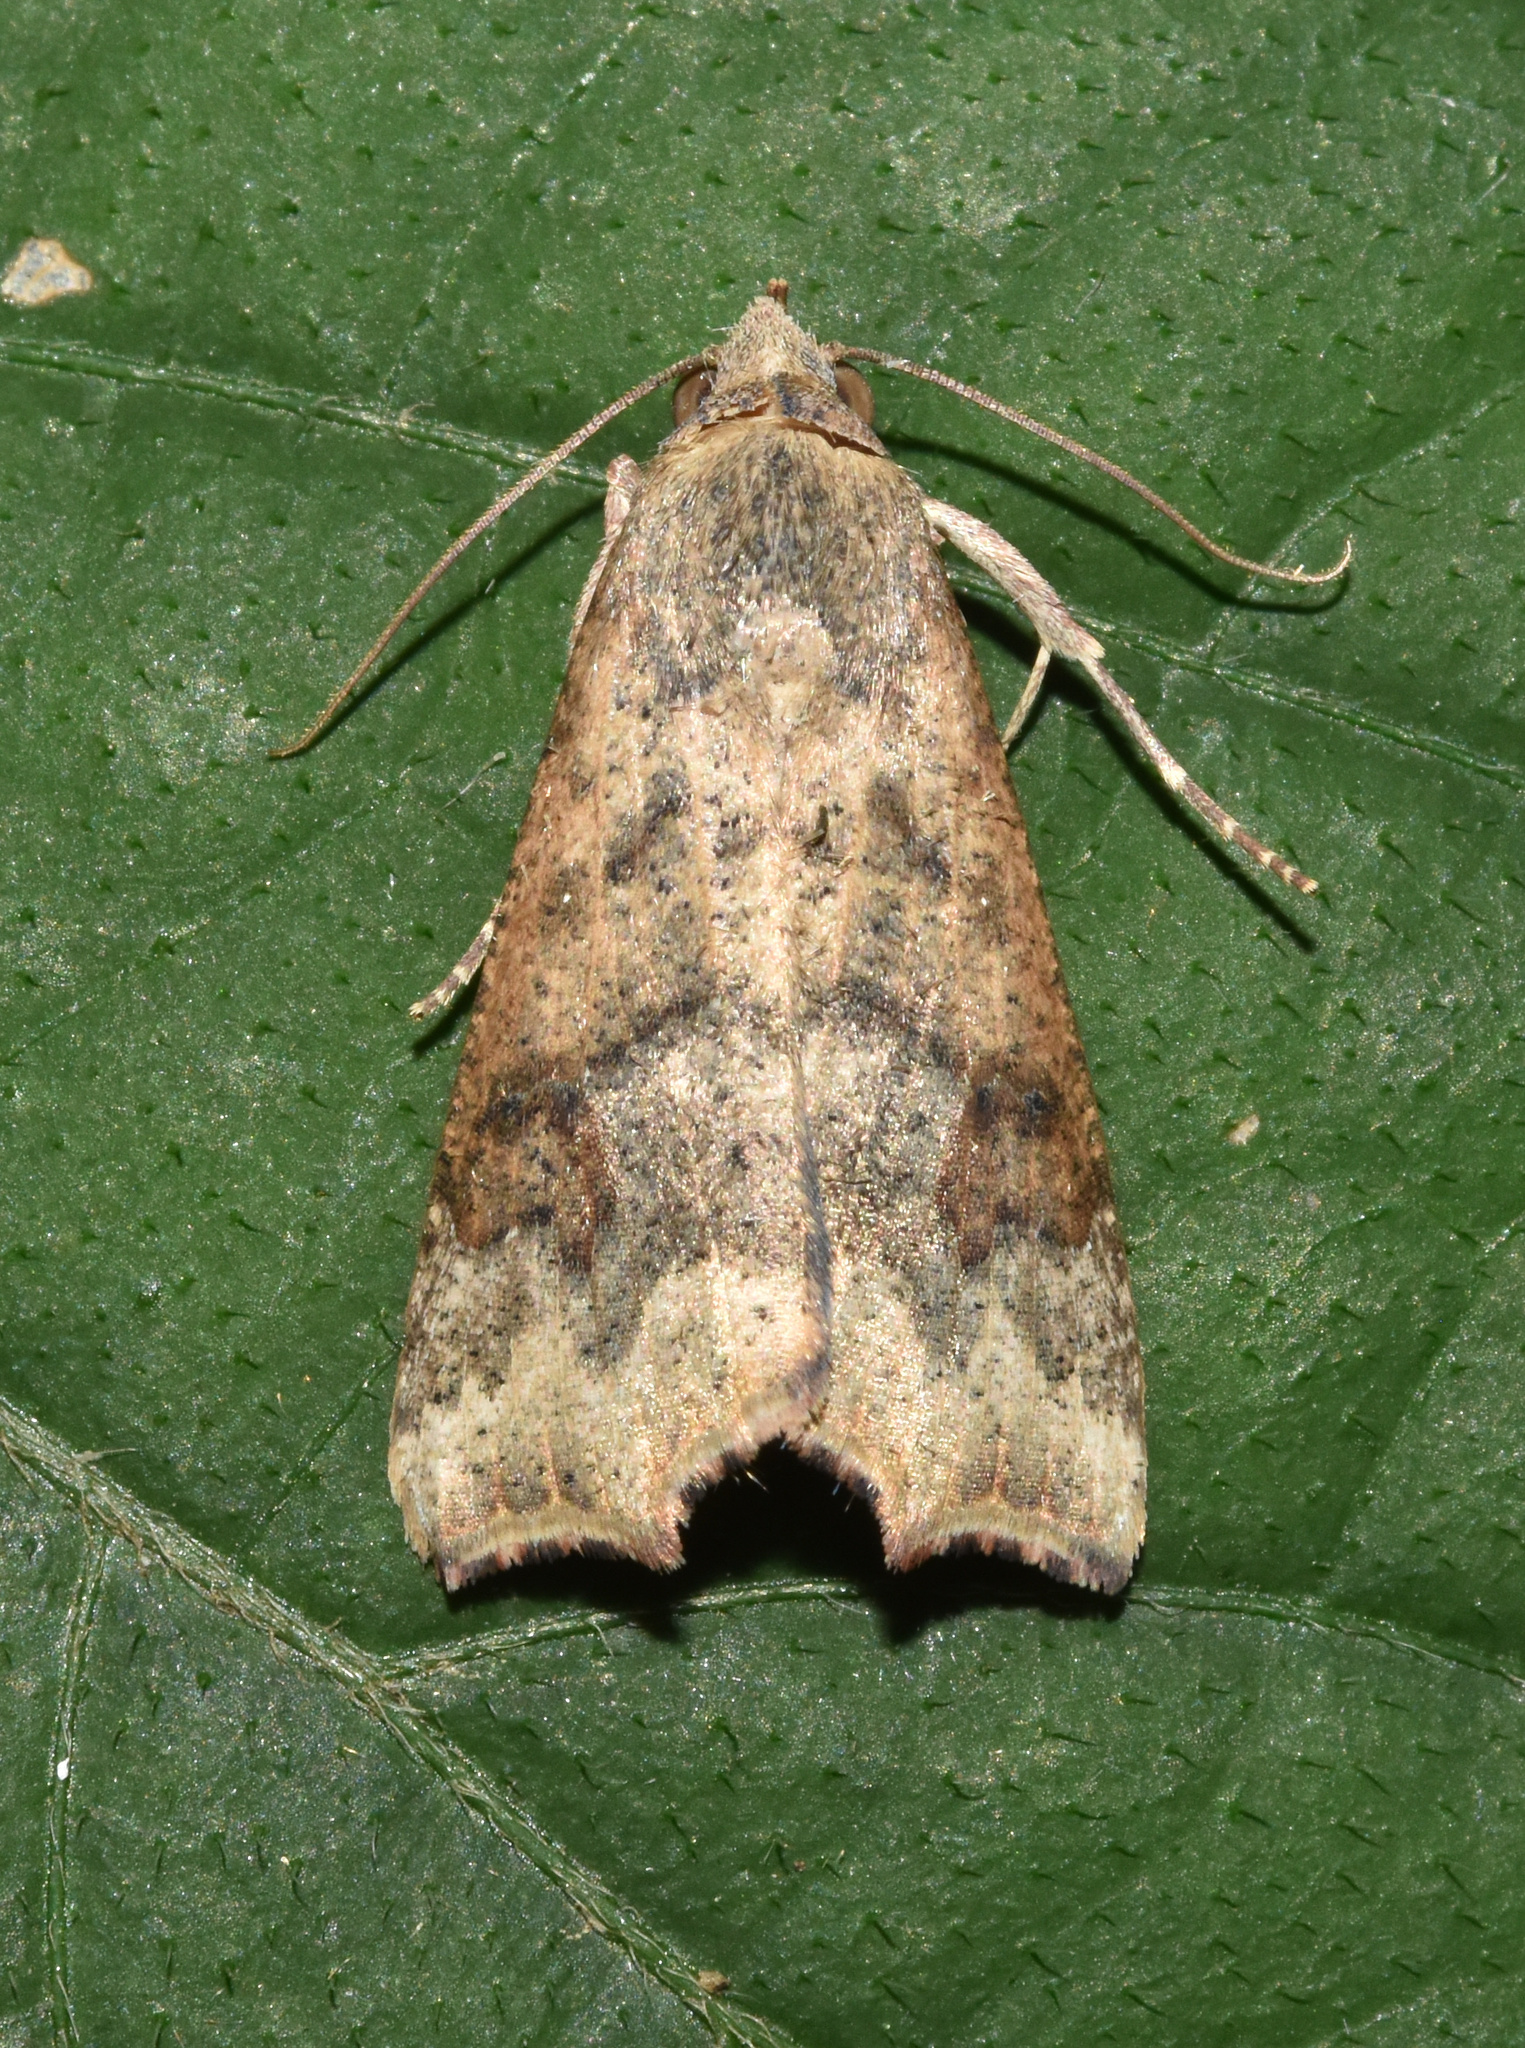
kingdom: Animalia
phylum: Arthropoda
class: Insecta
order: Lepidoptera
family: Erebidae
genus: Anomis
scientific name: Anomis sabulifera
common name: Angled gem
